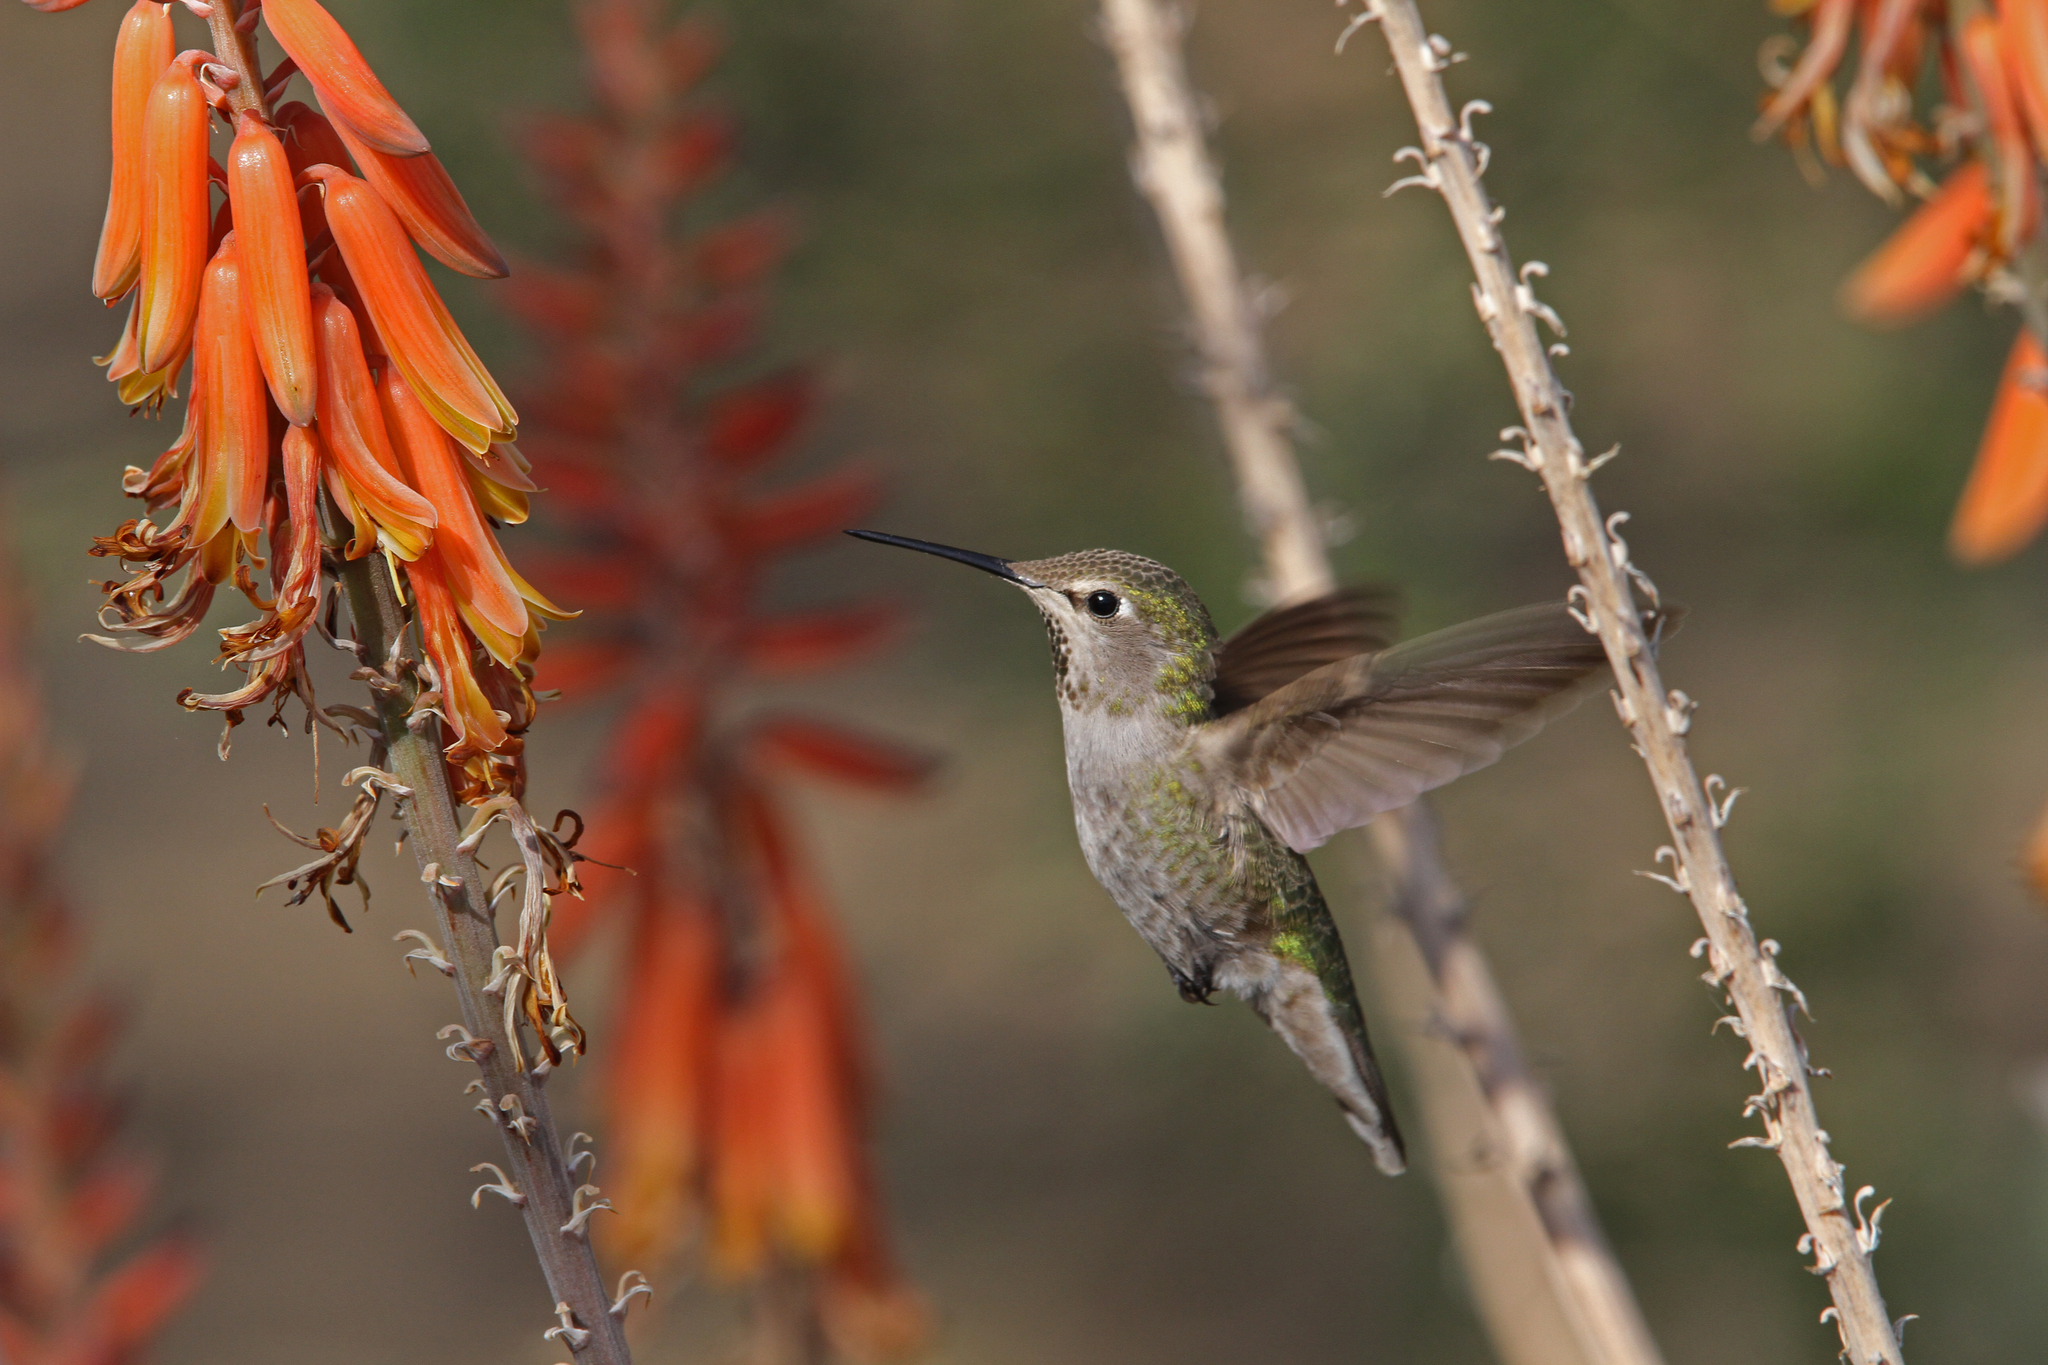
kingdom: Animalia
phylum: Chordata
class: Aves
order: Apodiformes
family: Trochilidae
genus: Calypte
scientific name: Calypte anna
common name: Anna's hummingbird
